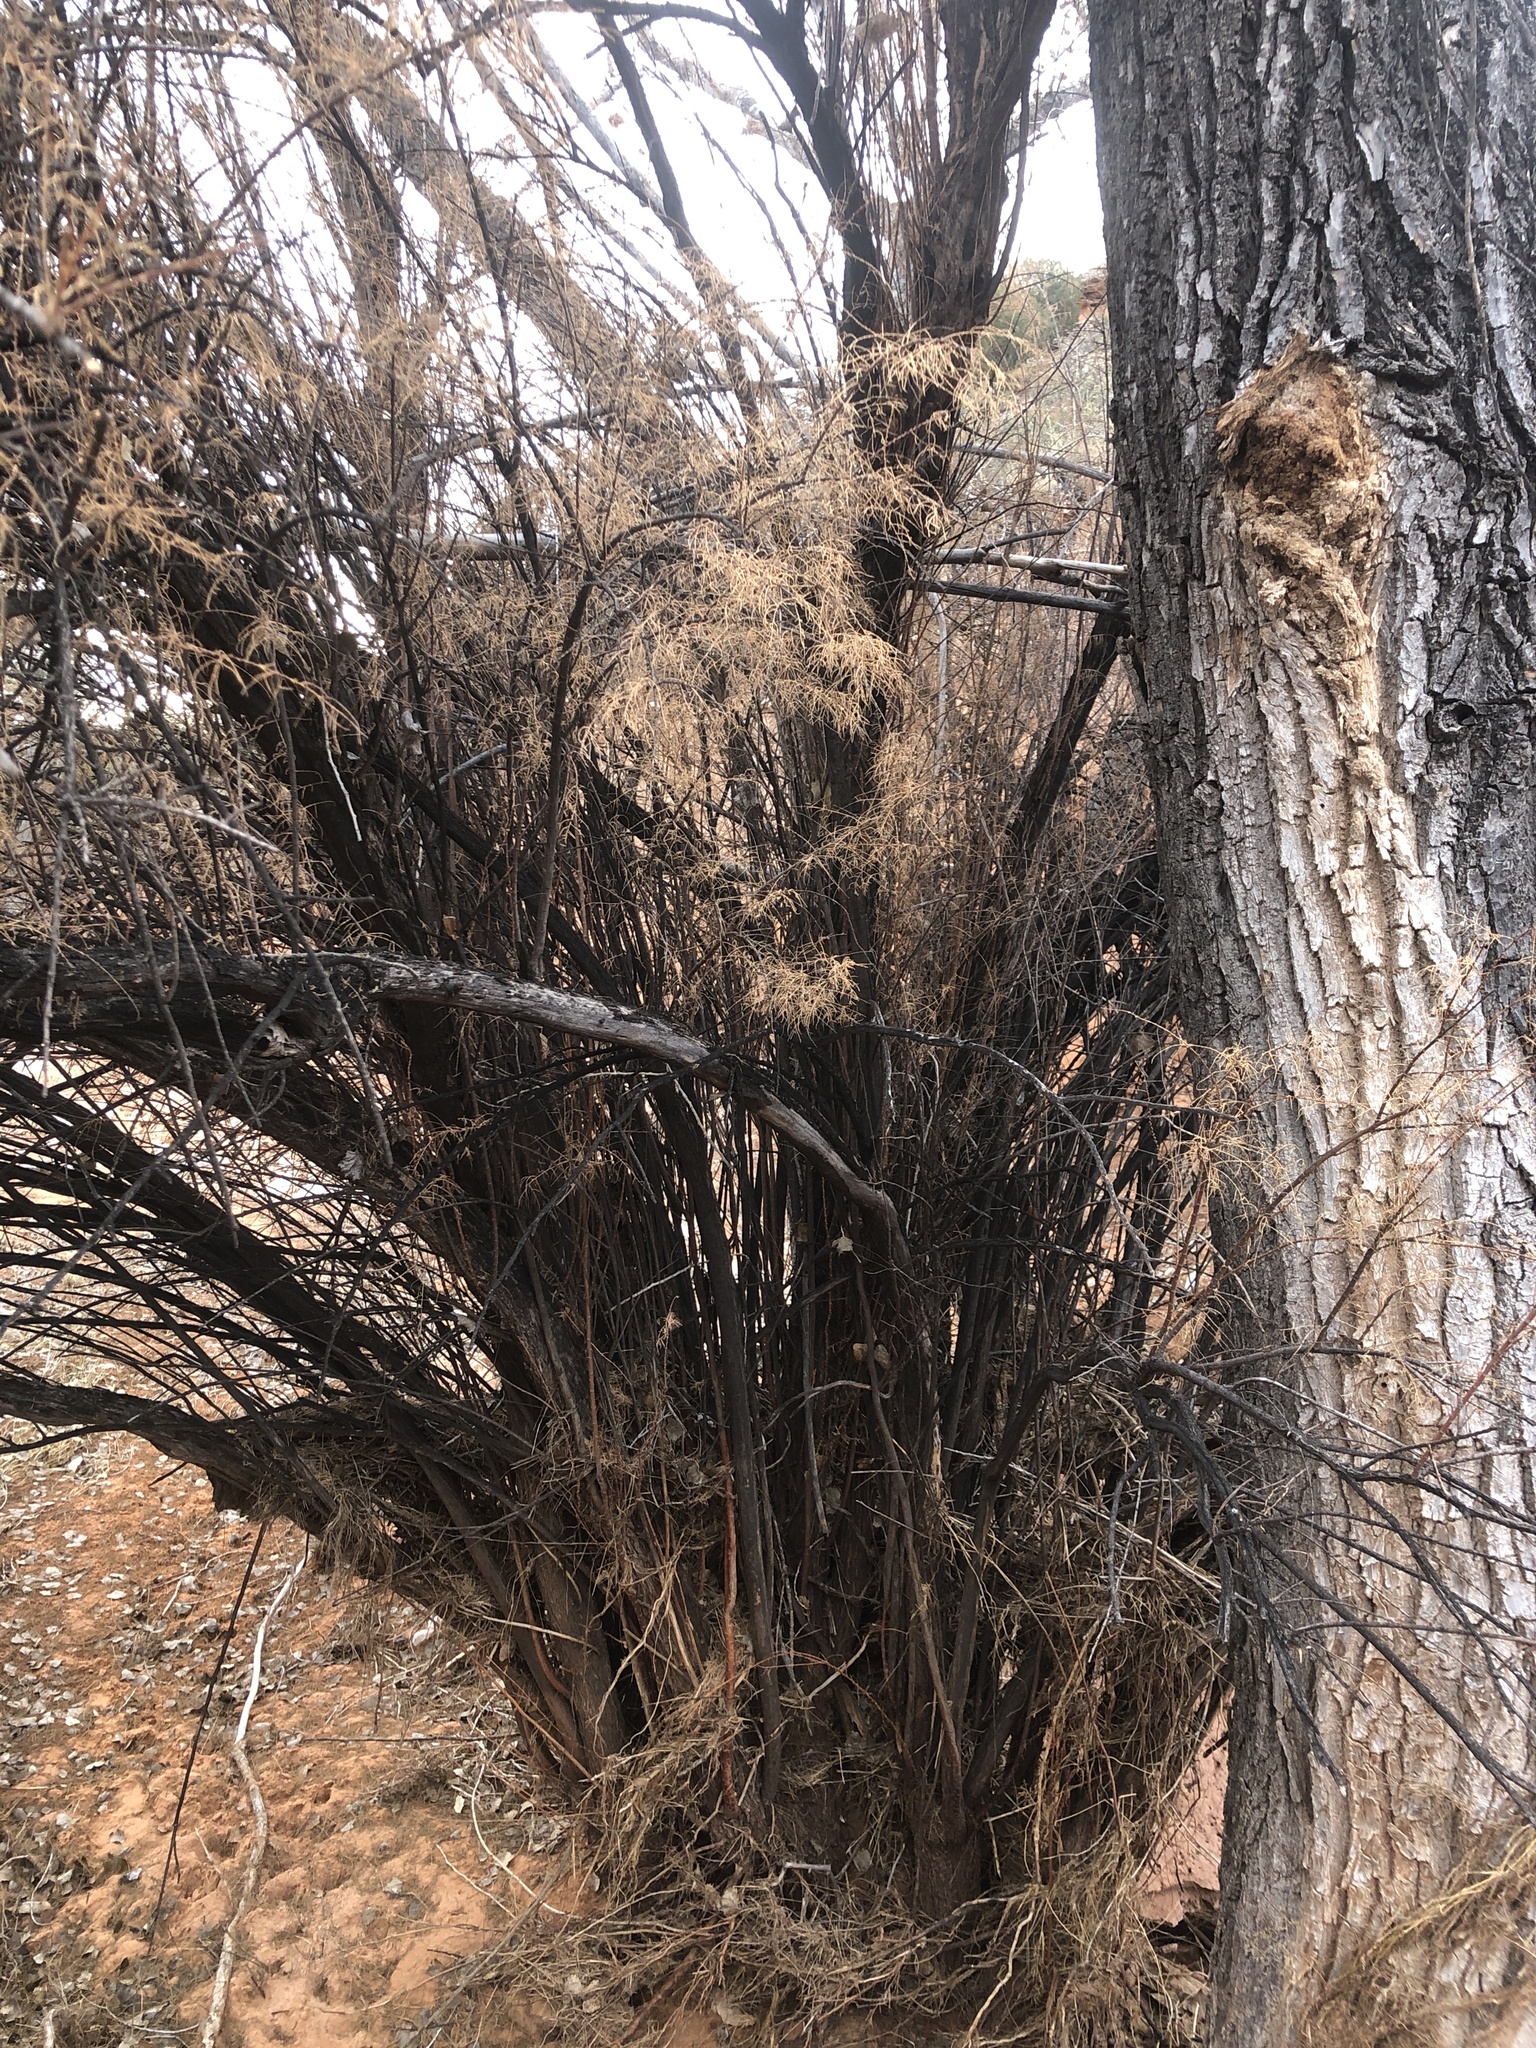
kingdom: Plantae
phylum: Tracheophyta
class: Magnoliopsida
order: Caryophyllales
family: Tamaricaceae
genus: Tamarix
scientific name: Tamarix
